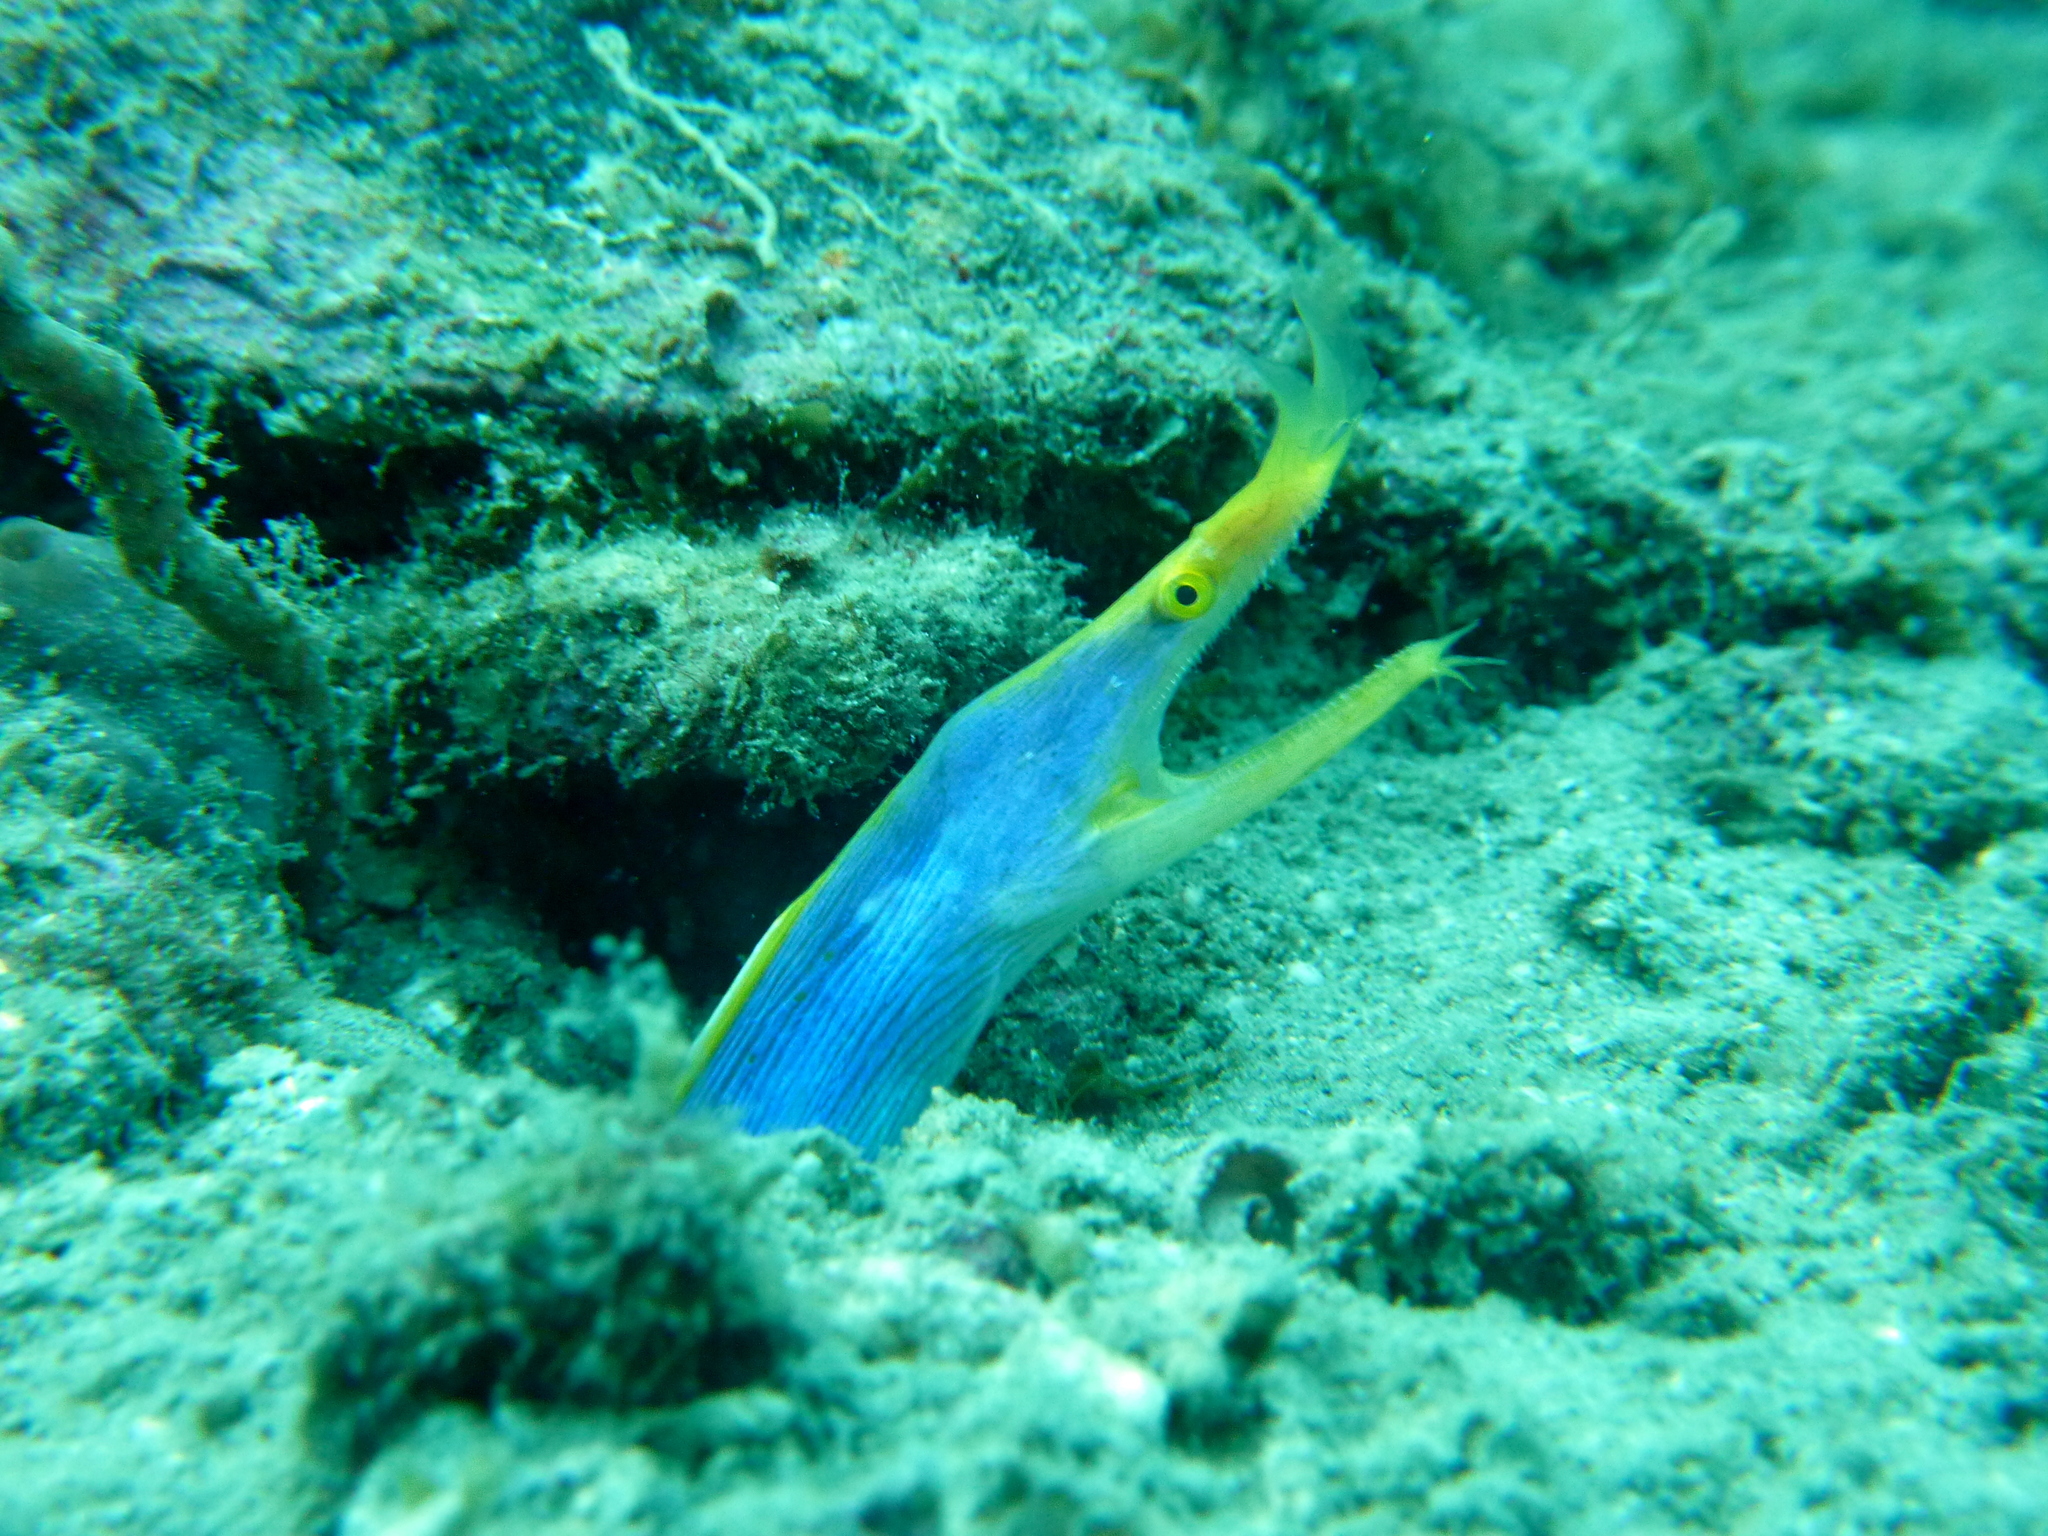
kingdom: Animalia
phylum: Chordata
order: Anguilliformes
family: Muraenidae
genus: Rhinomuraena
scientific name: Rhinomuraena quaesita
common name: Ribbon eel
